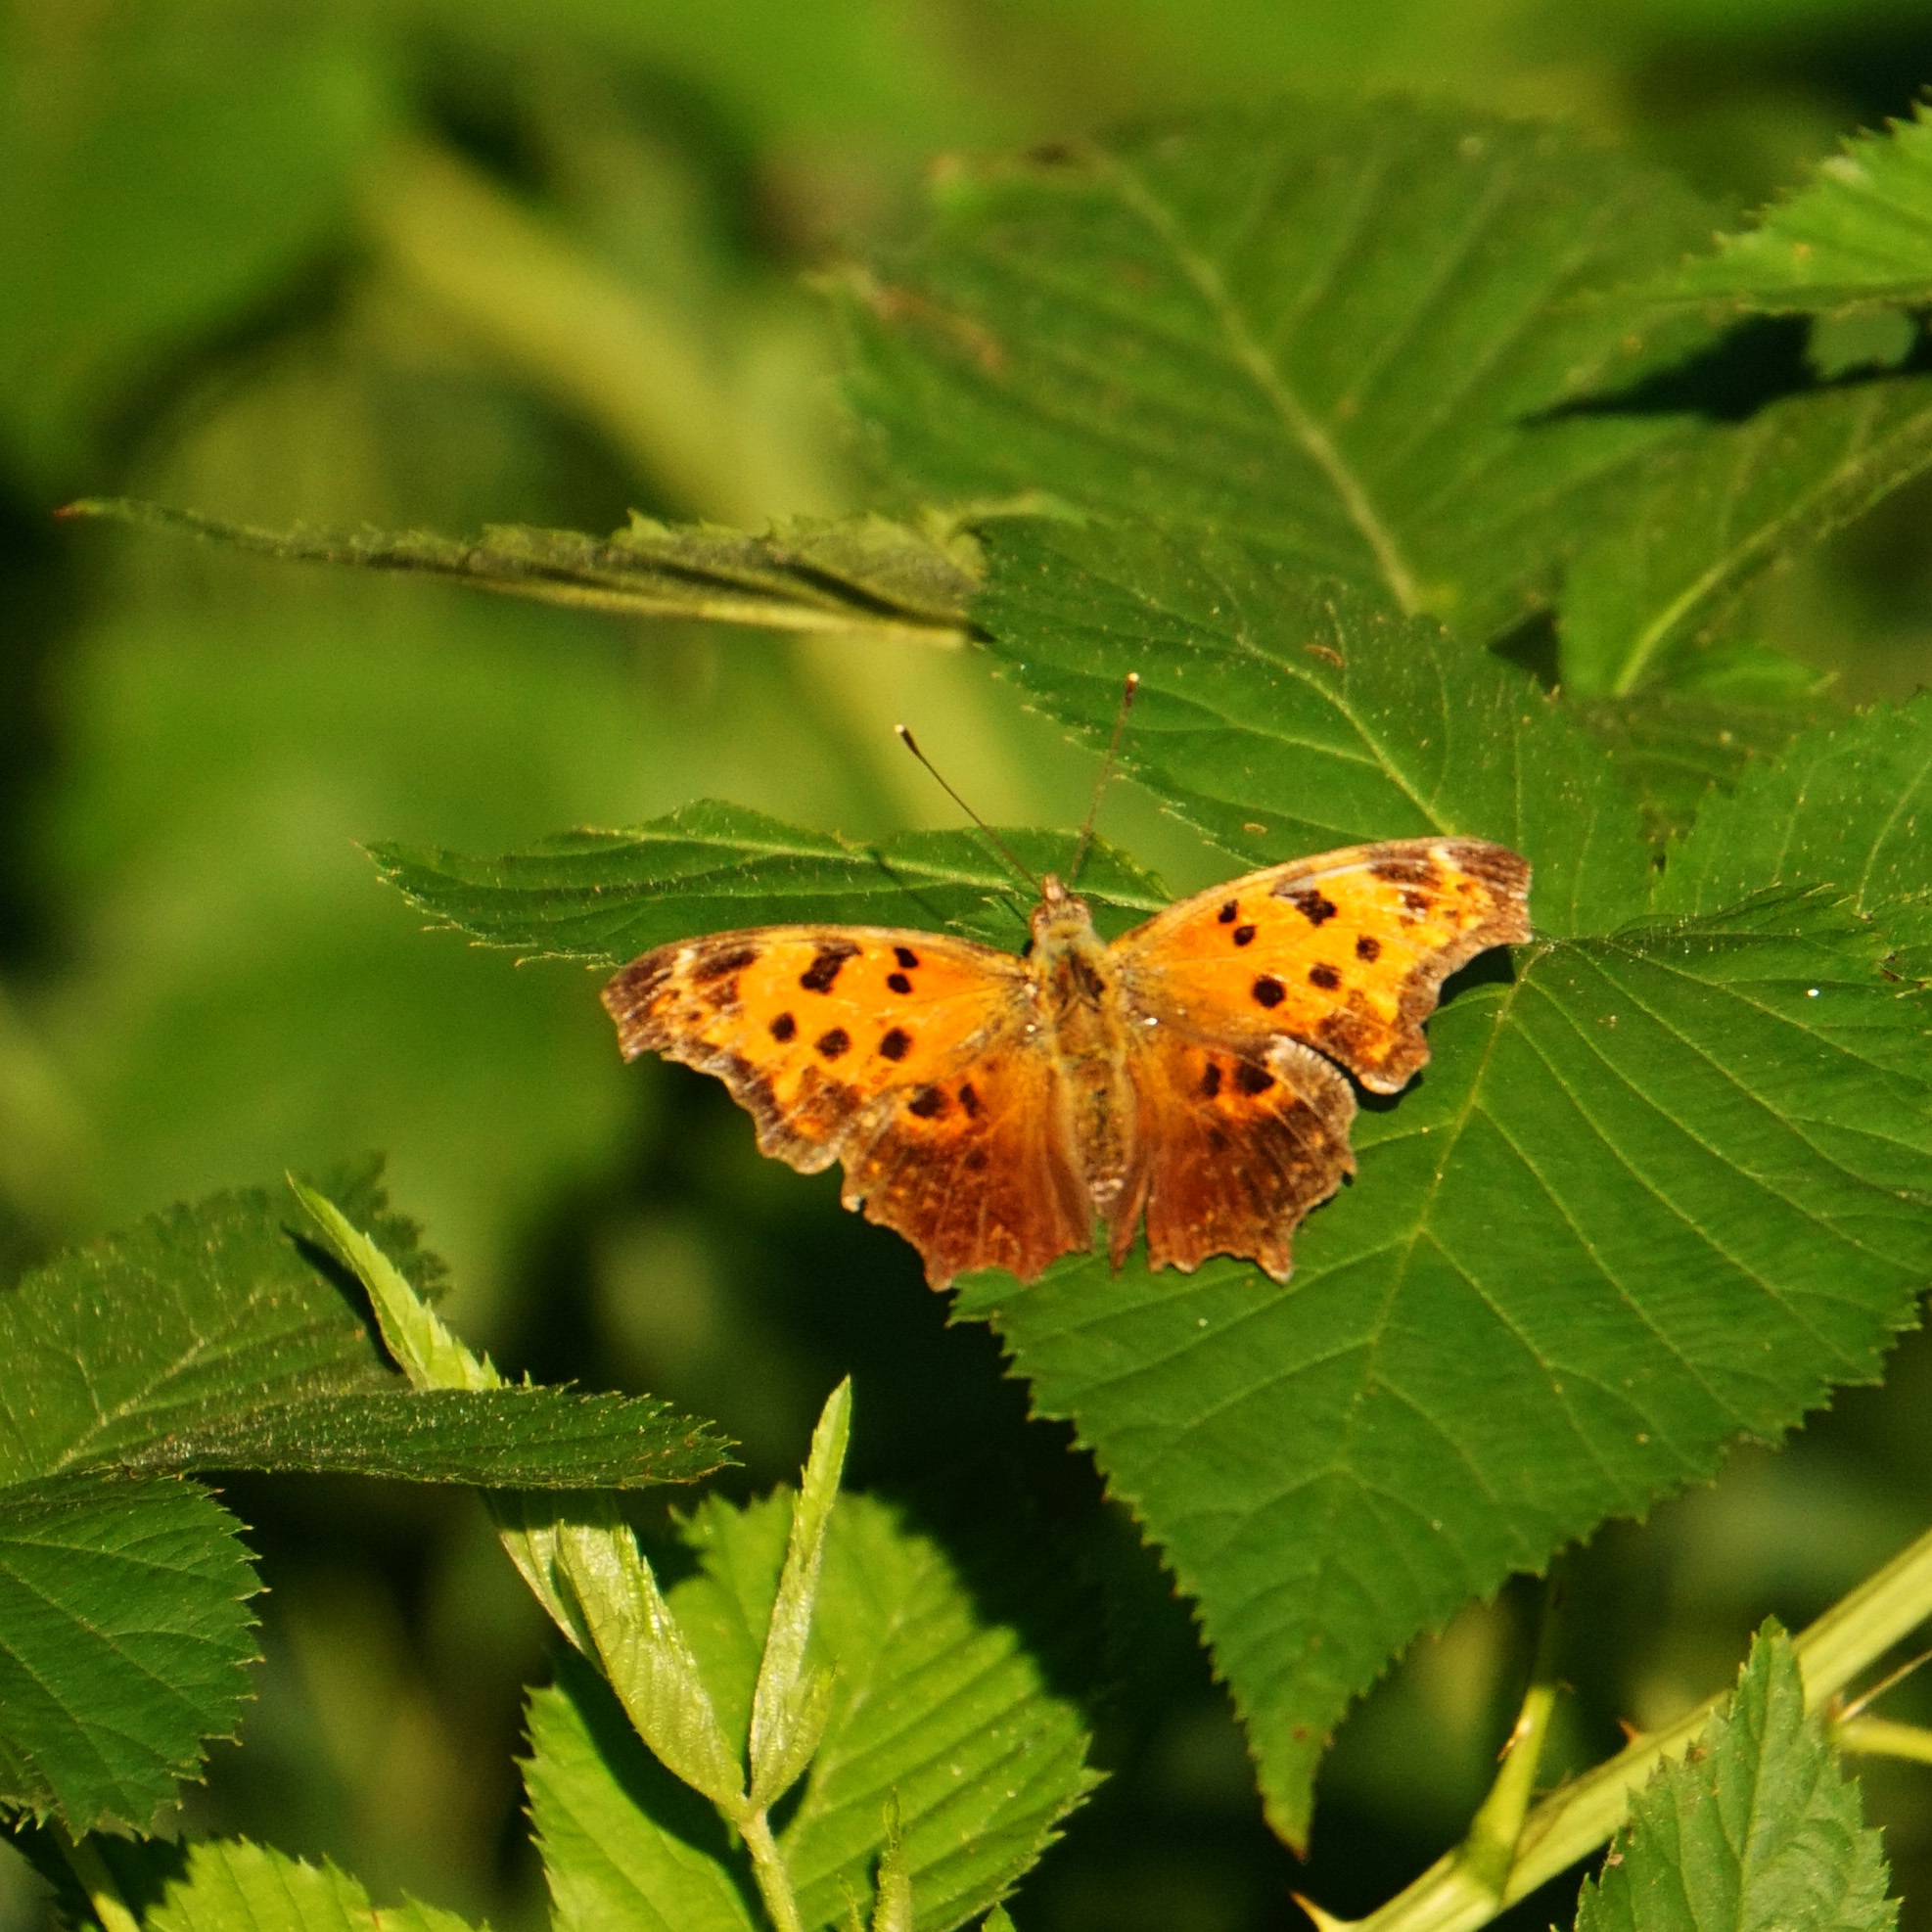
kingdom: Animalia
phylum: Arthropoda
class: Insecta
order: Lepidoptera
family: Nymphalidae
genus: Polygonia
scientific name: Polygonia comma
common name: Eastern comma
